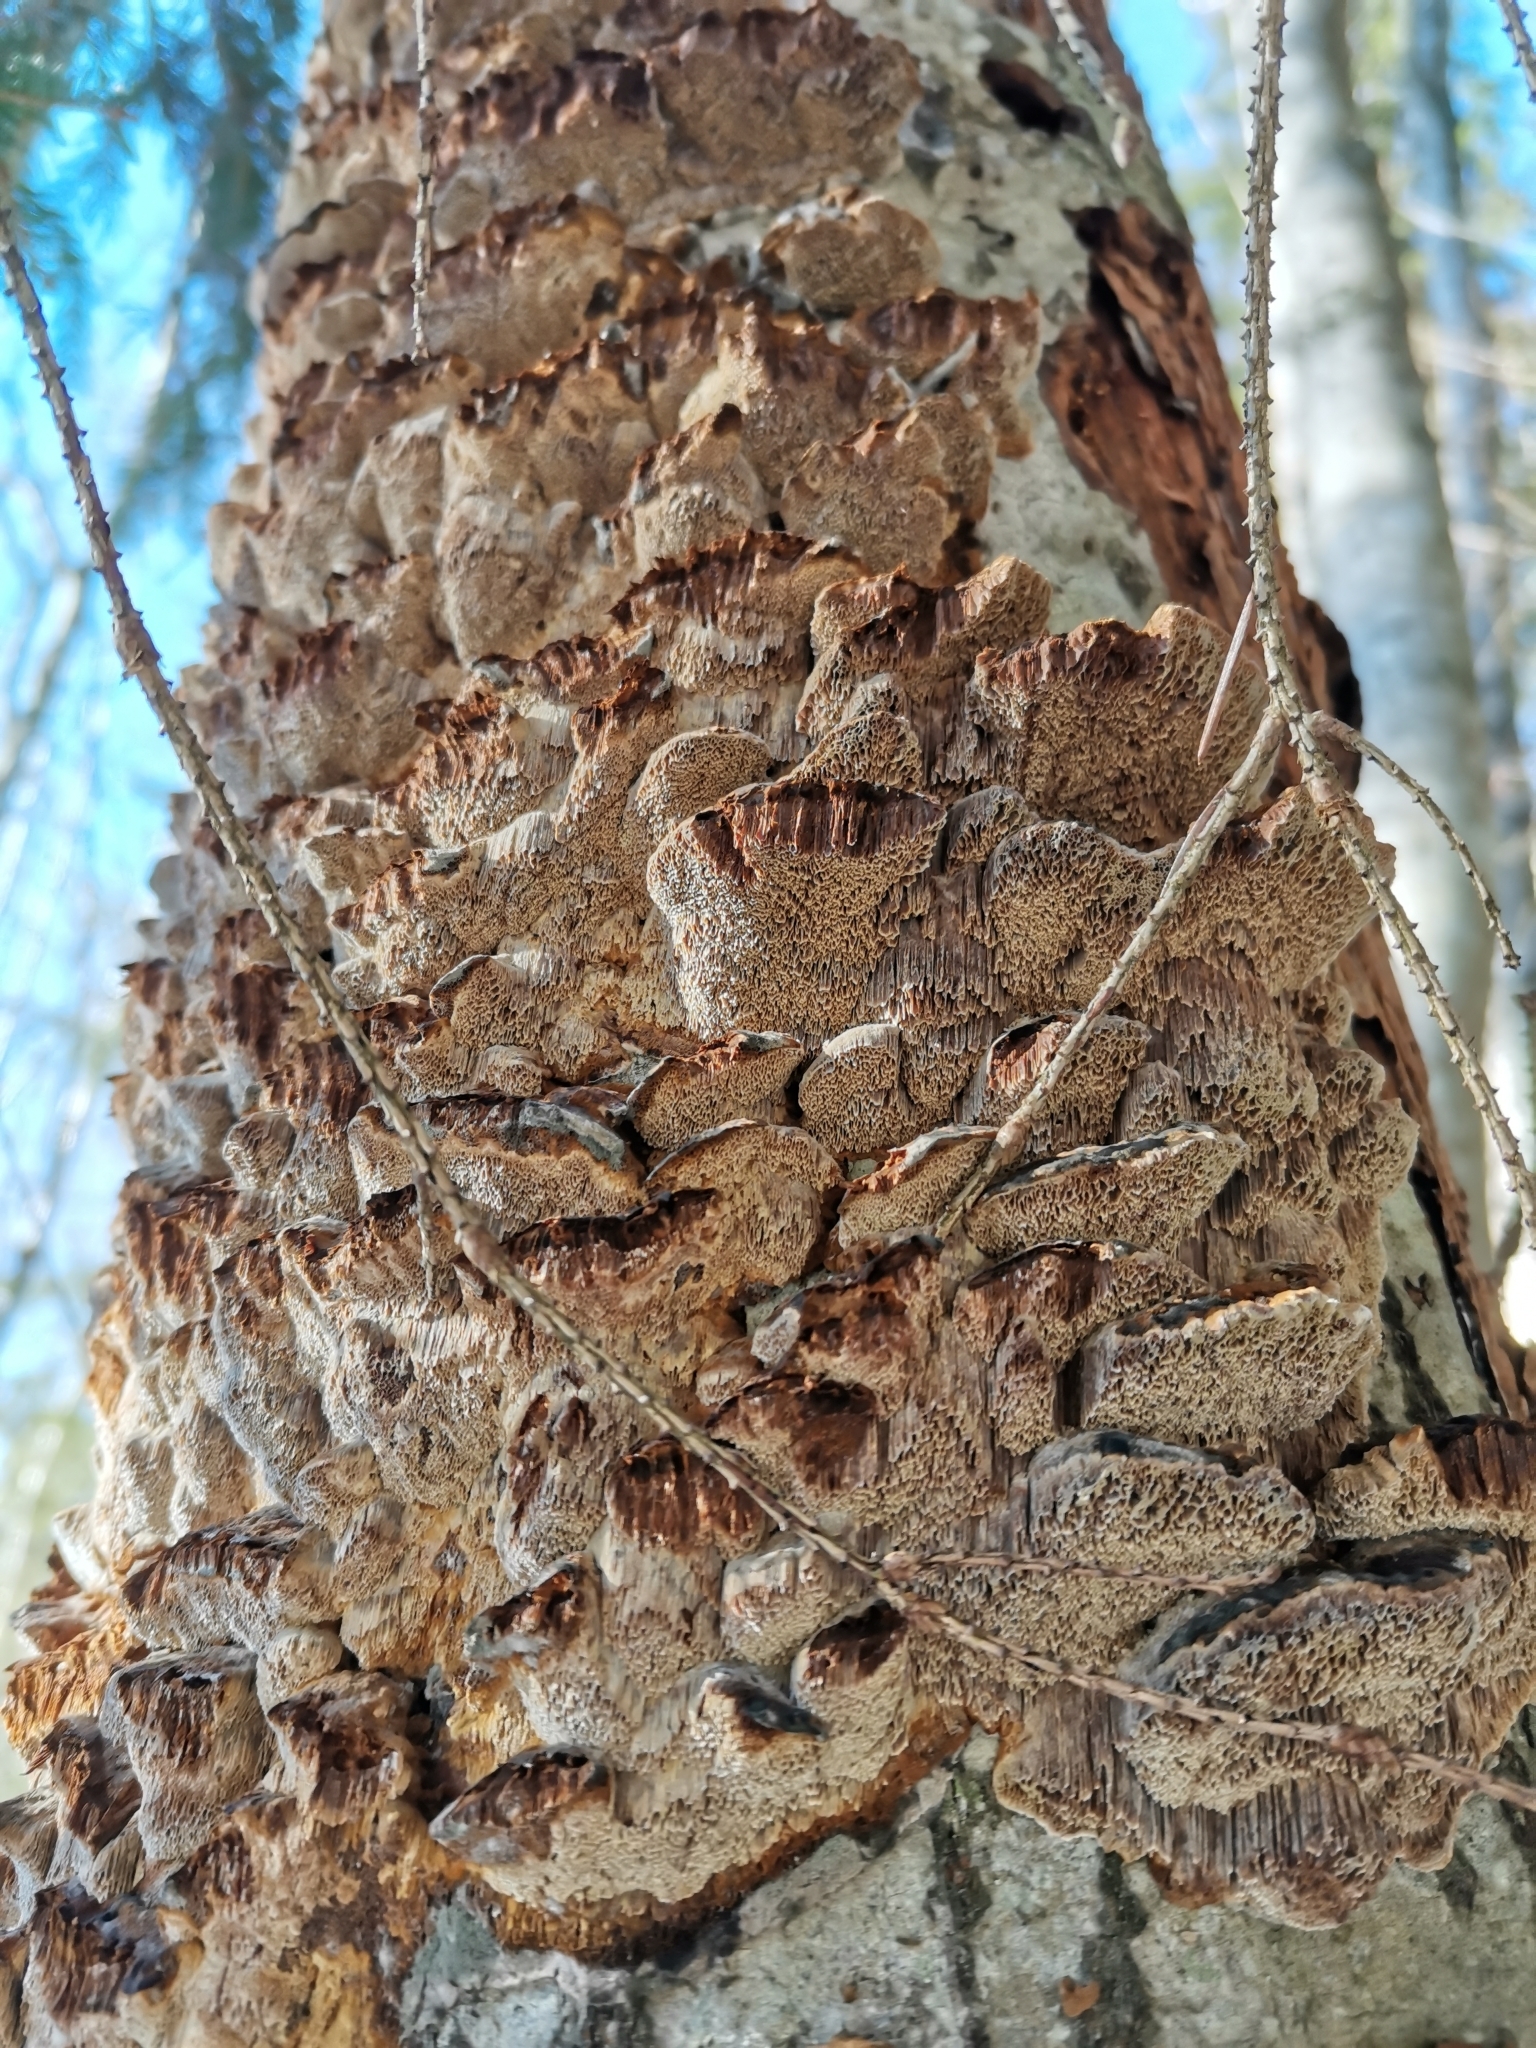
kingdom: Fungi
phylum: Basidiomycota
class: Agaricomycetes
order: Hymenochaetales
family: Hymenochaetaceae
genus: Xanthoporia
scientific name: Xanthoporia radiata
